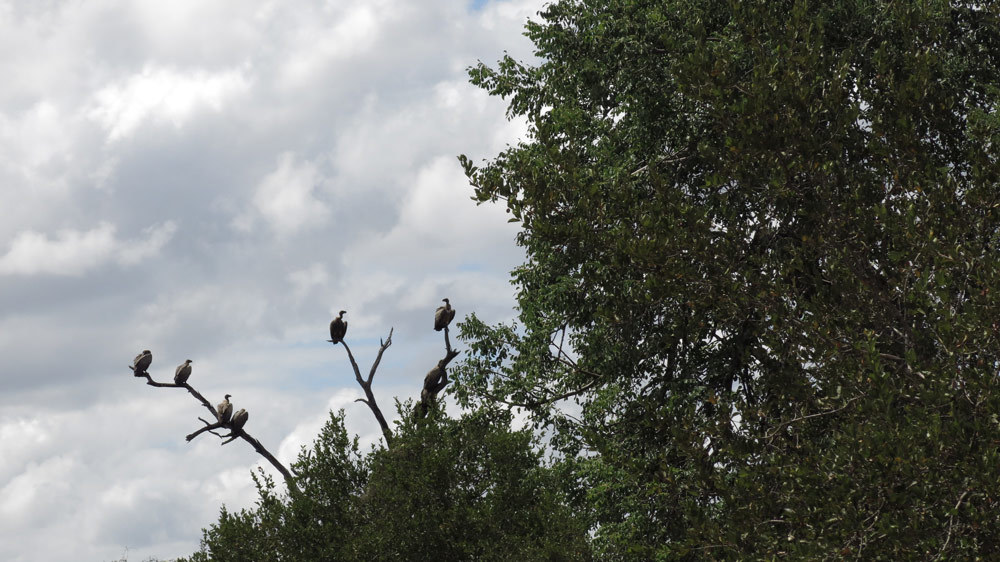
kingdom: Animalia
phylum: Chordata
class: Aves
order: Accipitriformes
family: Accipitridae
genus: Gyps
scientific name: Gyps africanus
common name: White-backed vulture
